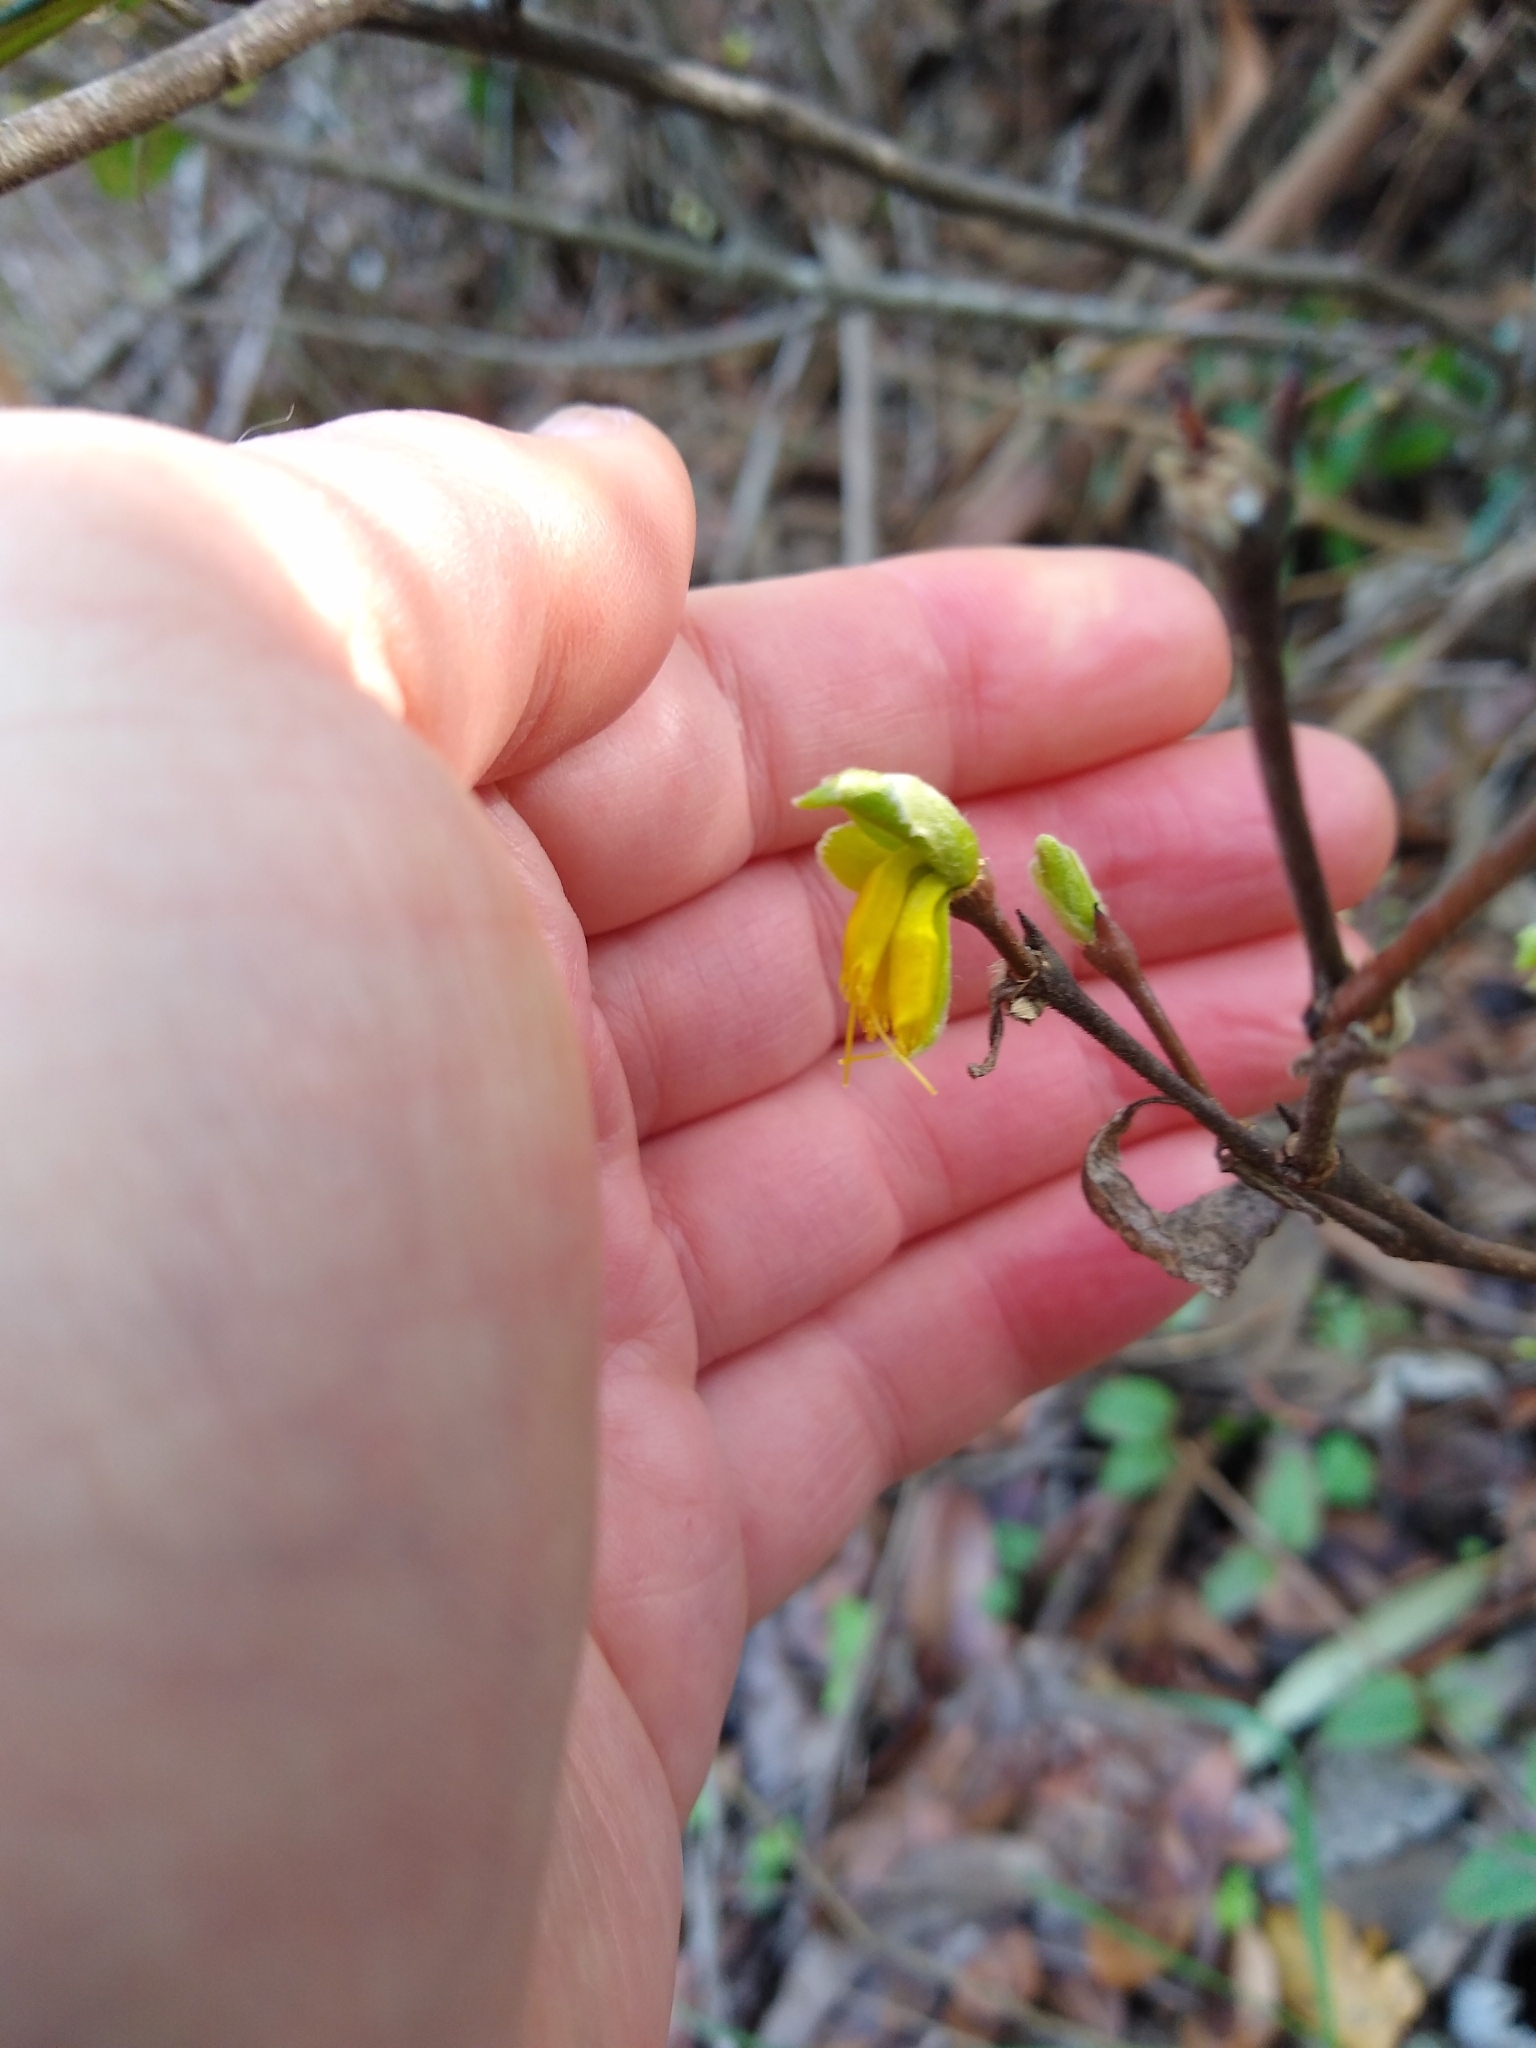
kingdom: Plantae
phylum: Tracheophyta
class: Magnoliopsida
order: Malvales
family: Thymelaeaceae
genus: Dirca
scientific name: Dirca occidentalis
